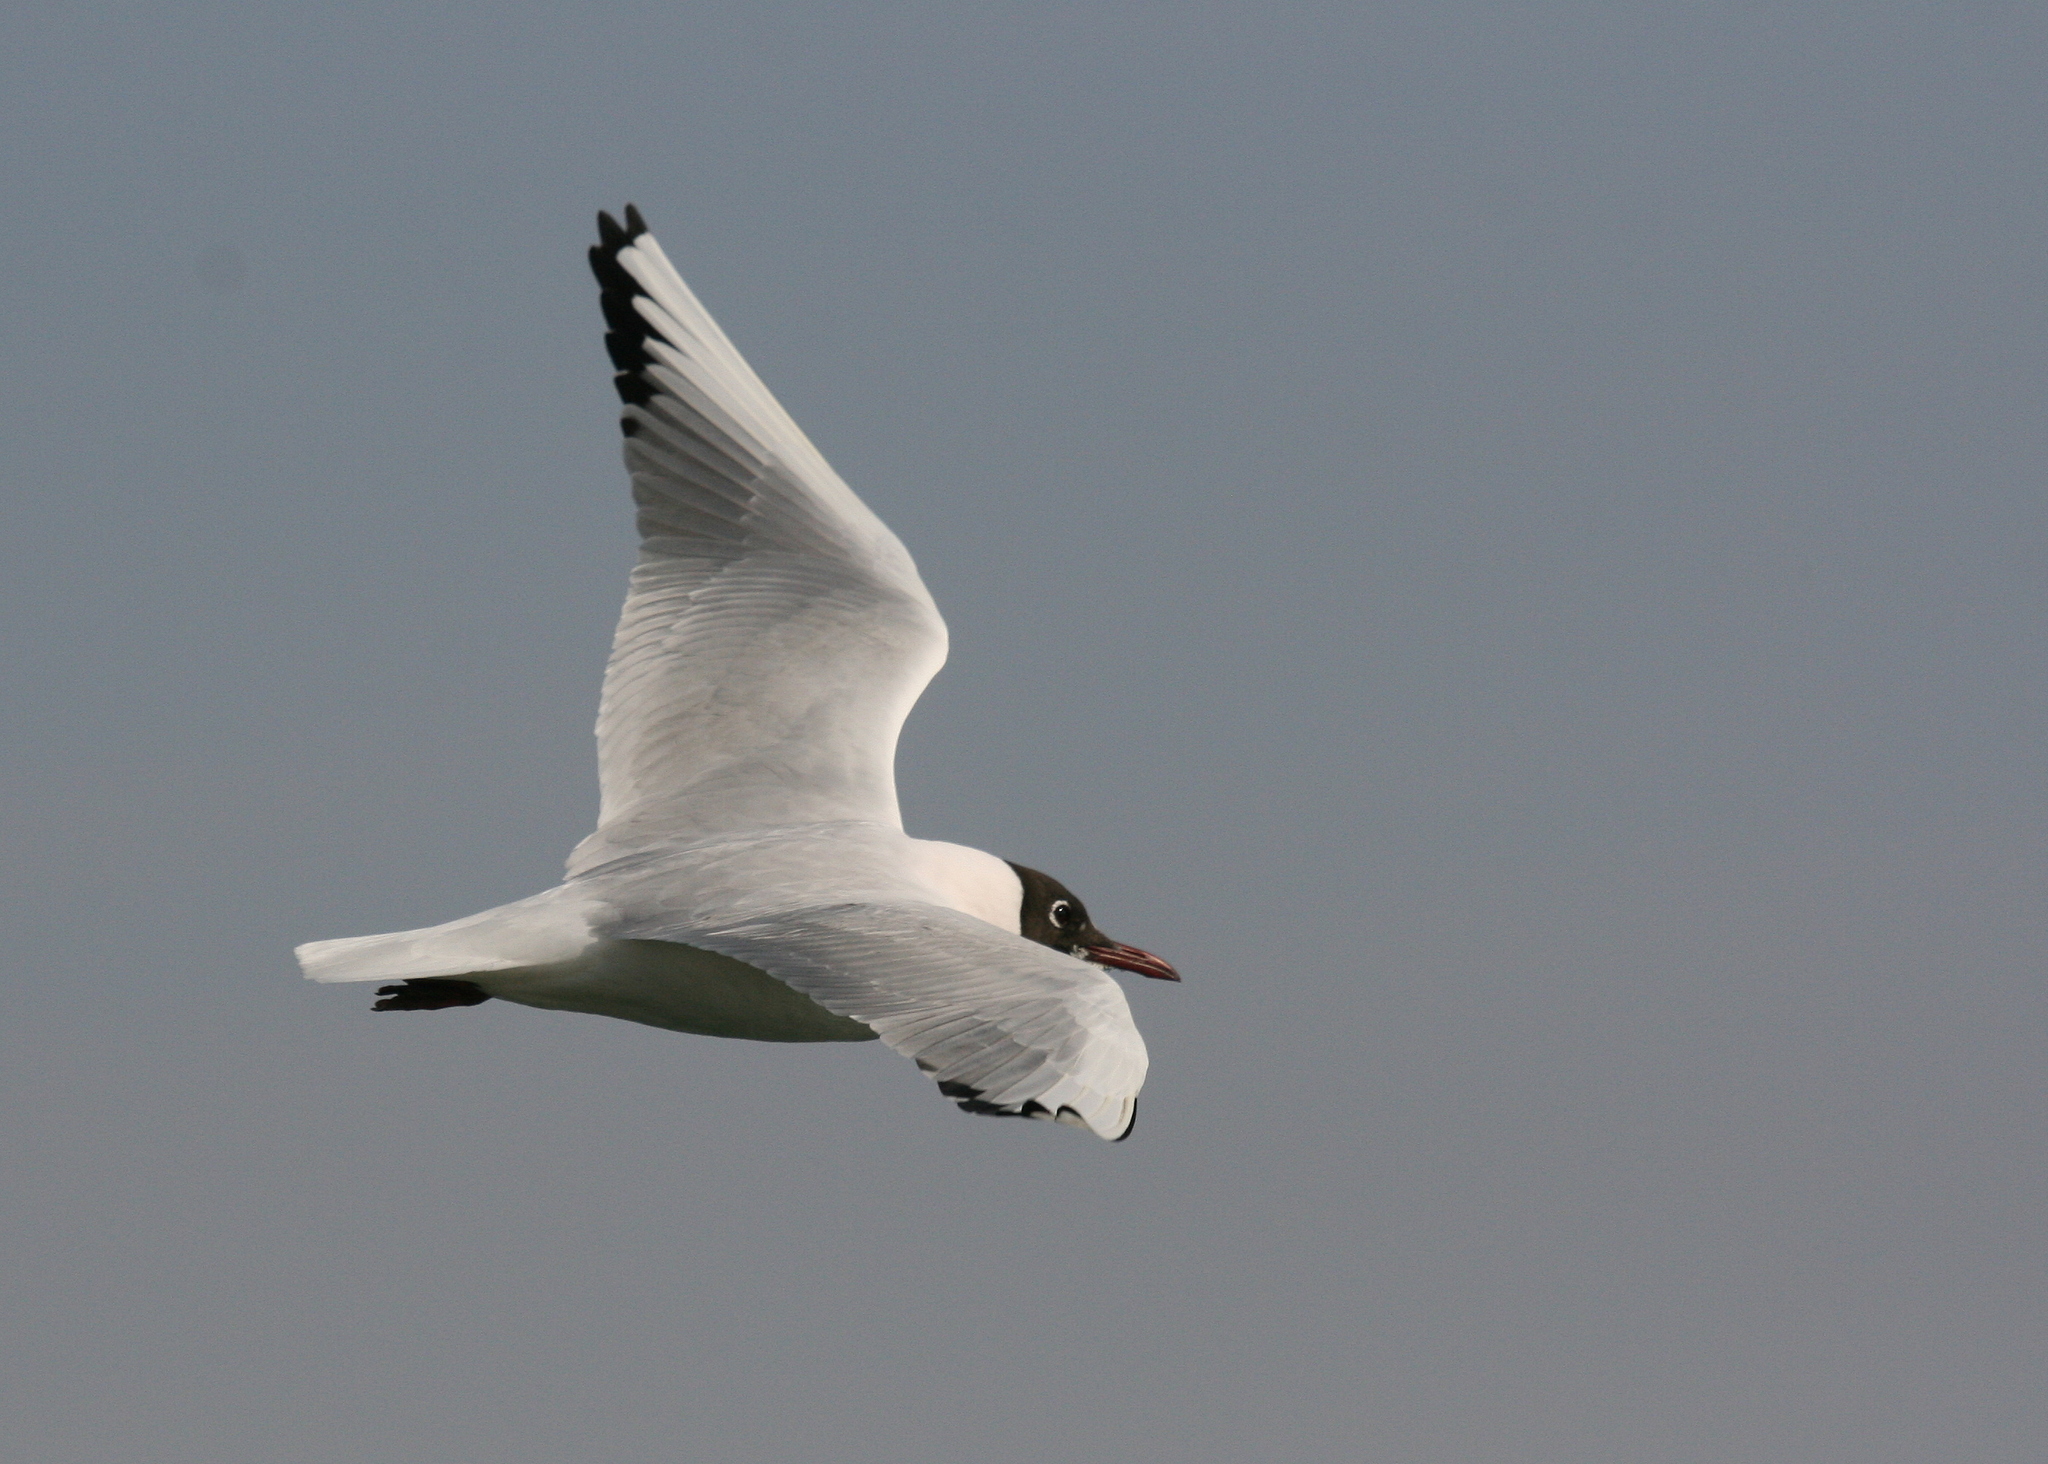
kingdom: Animalia
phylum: Chordata
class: Aves
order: Charadriiformes
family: Laridae
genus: Chroicocephalus
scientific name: Chroicocephalus ridibundus
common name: Black-headed gull
